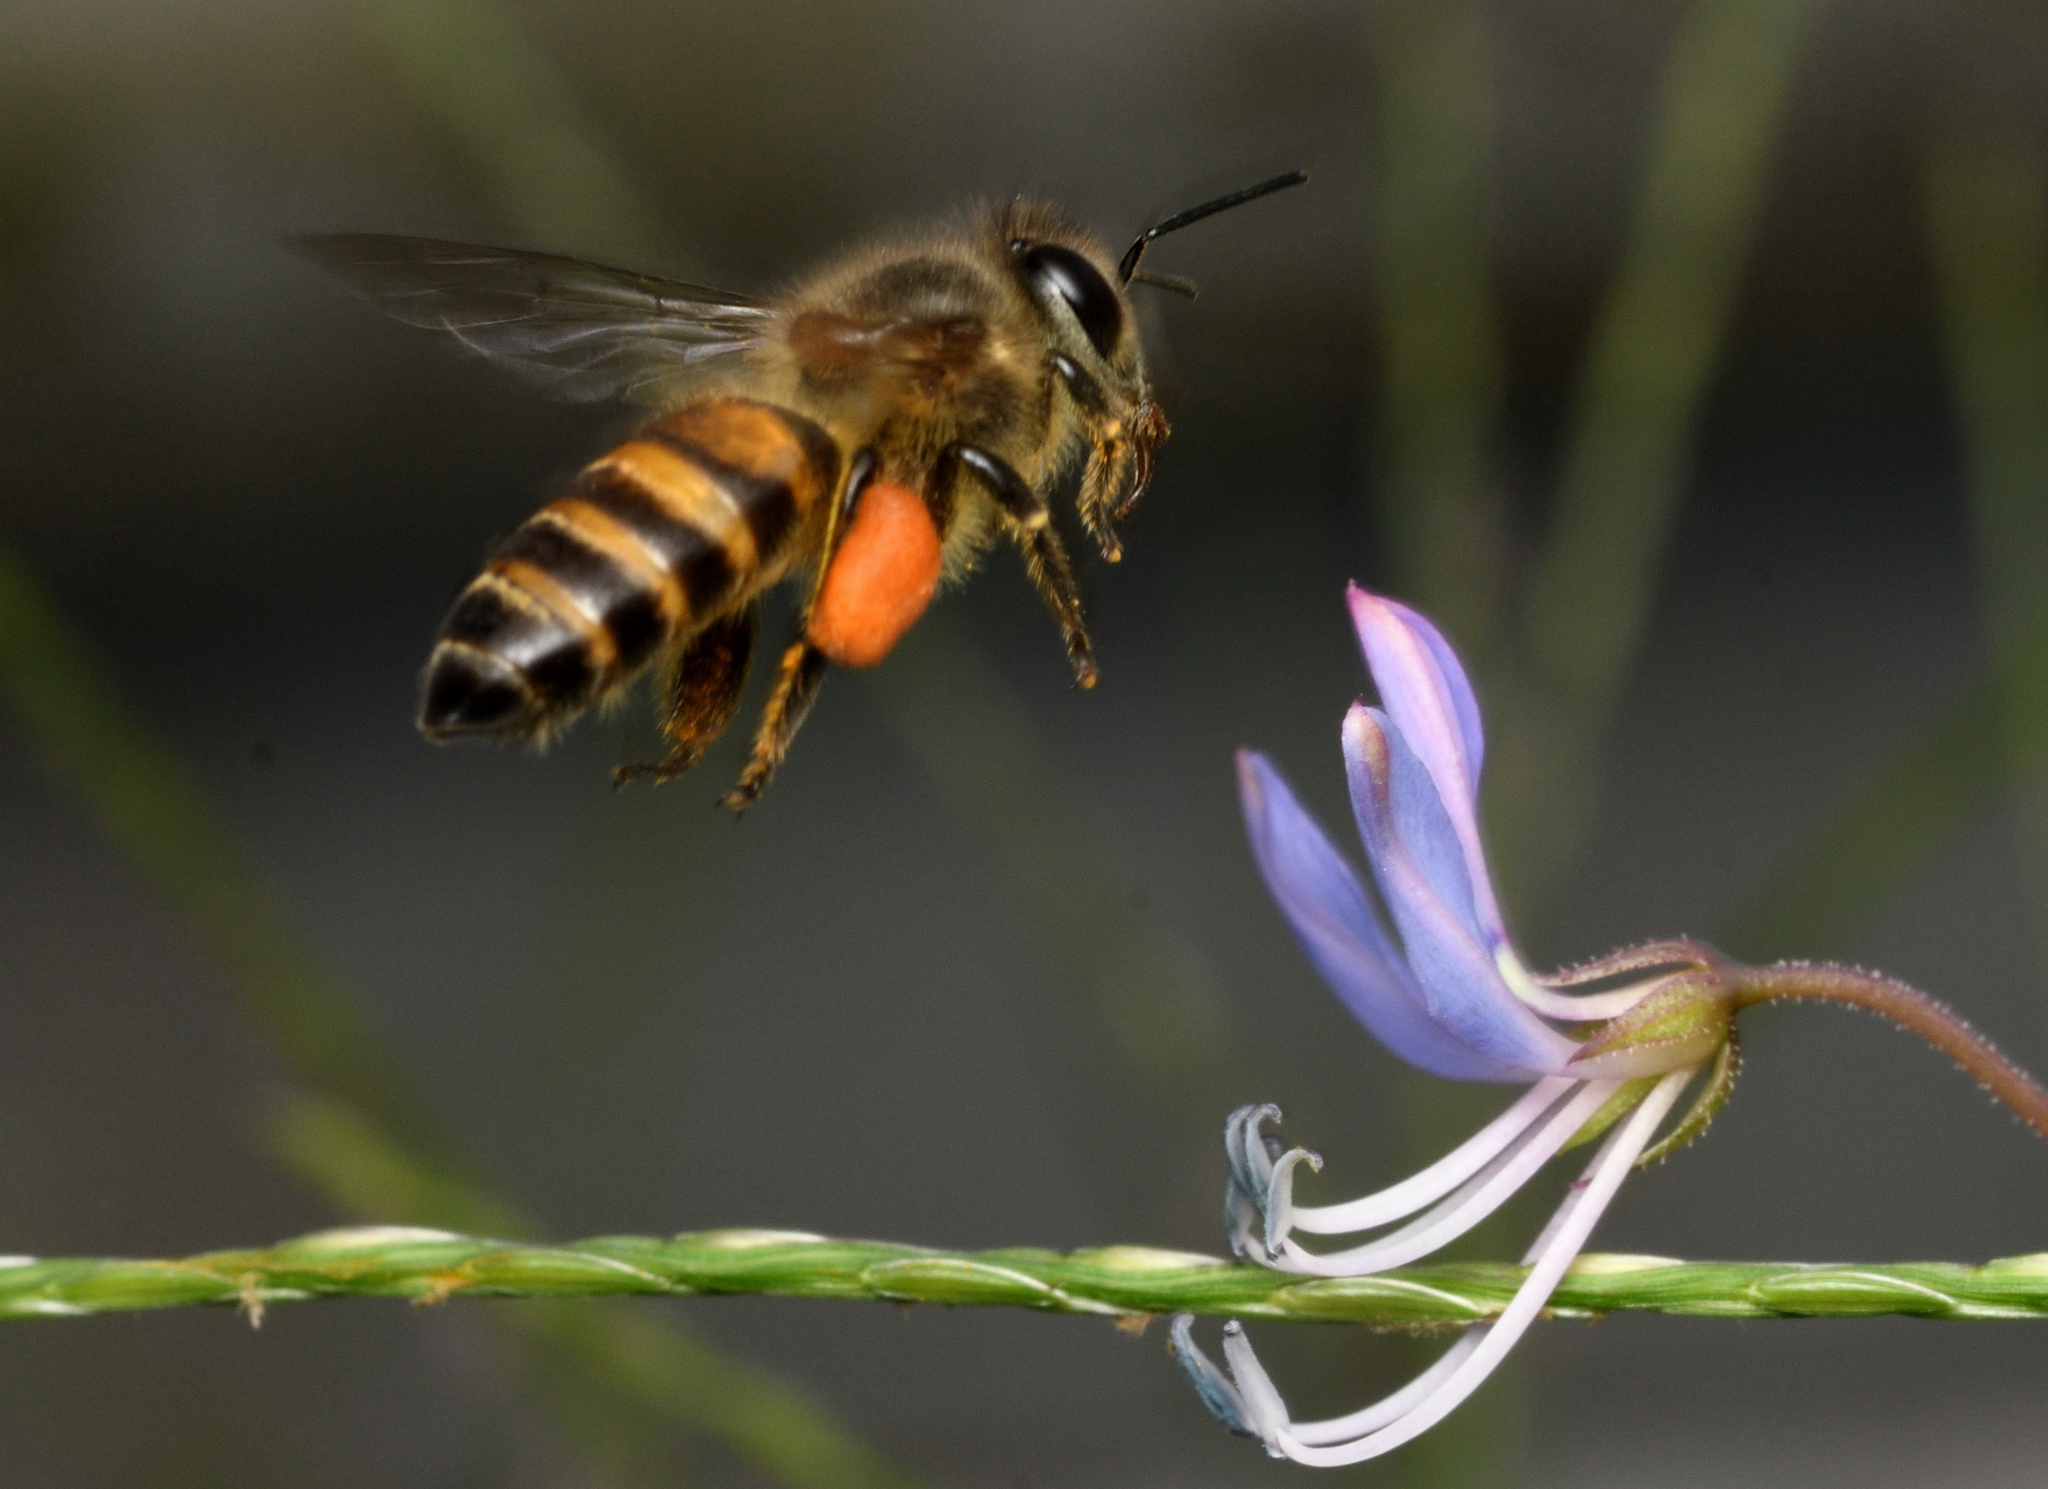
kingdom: Animalia
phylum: Arthropoda
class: Insecta
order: Hymenoptera
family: Apidae
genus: Apis
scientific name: Apis cerana
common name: Honey bee
